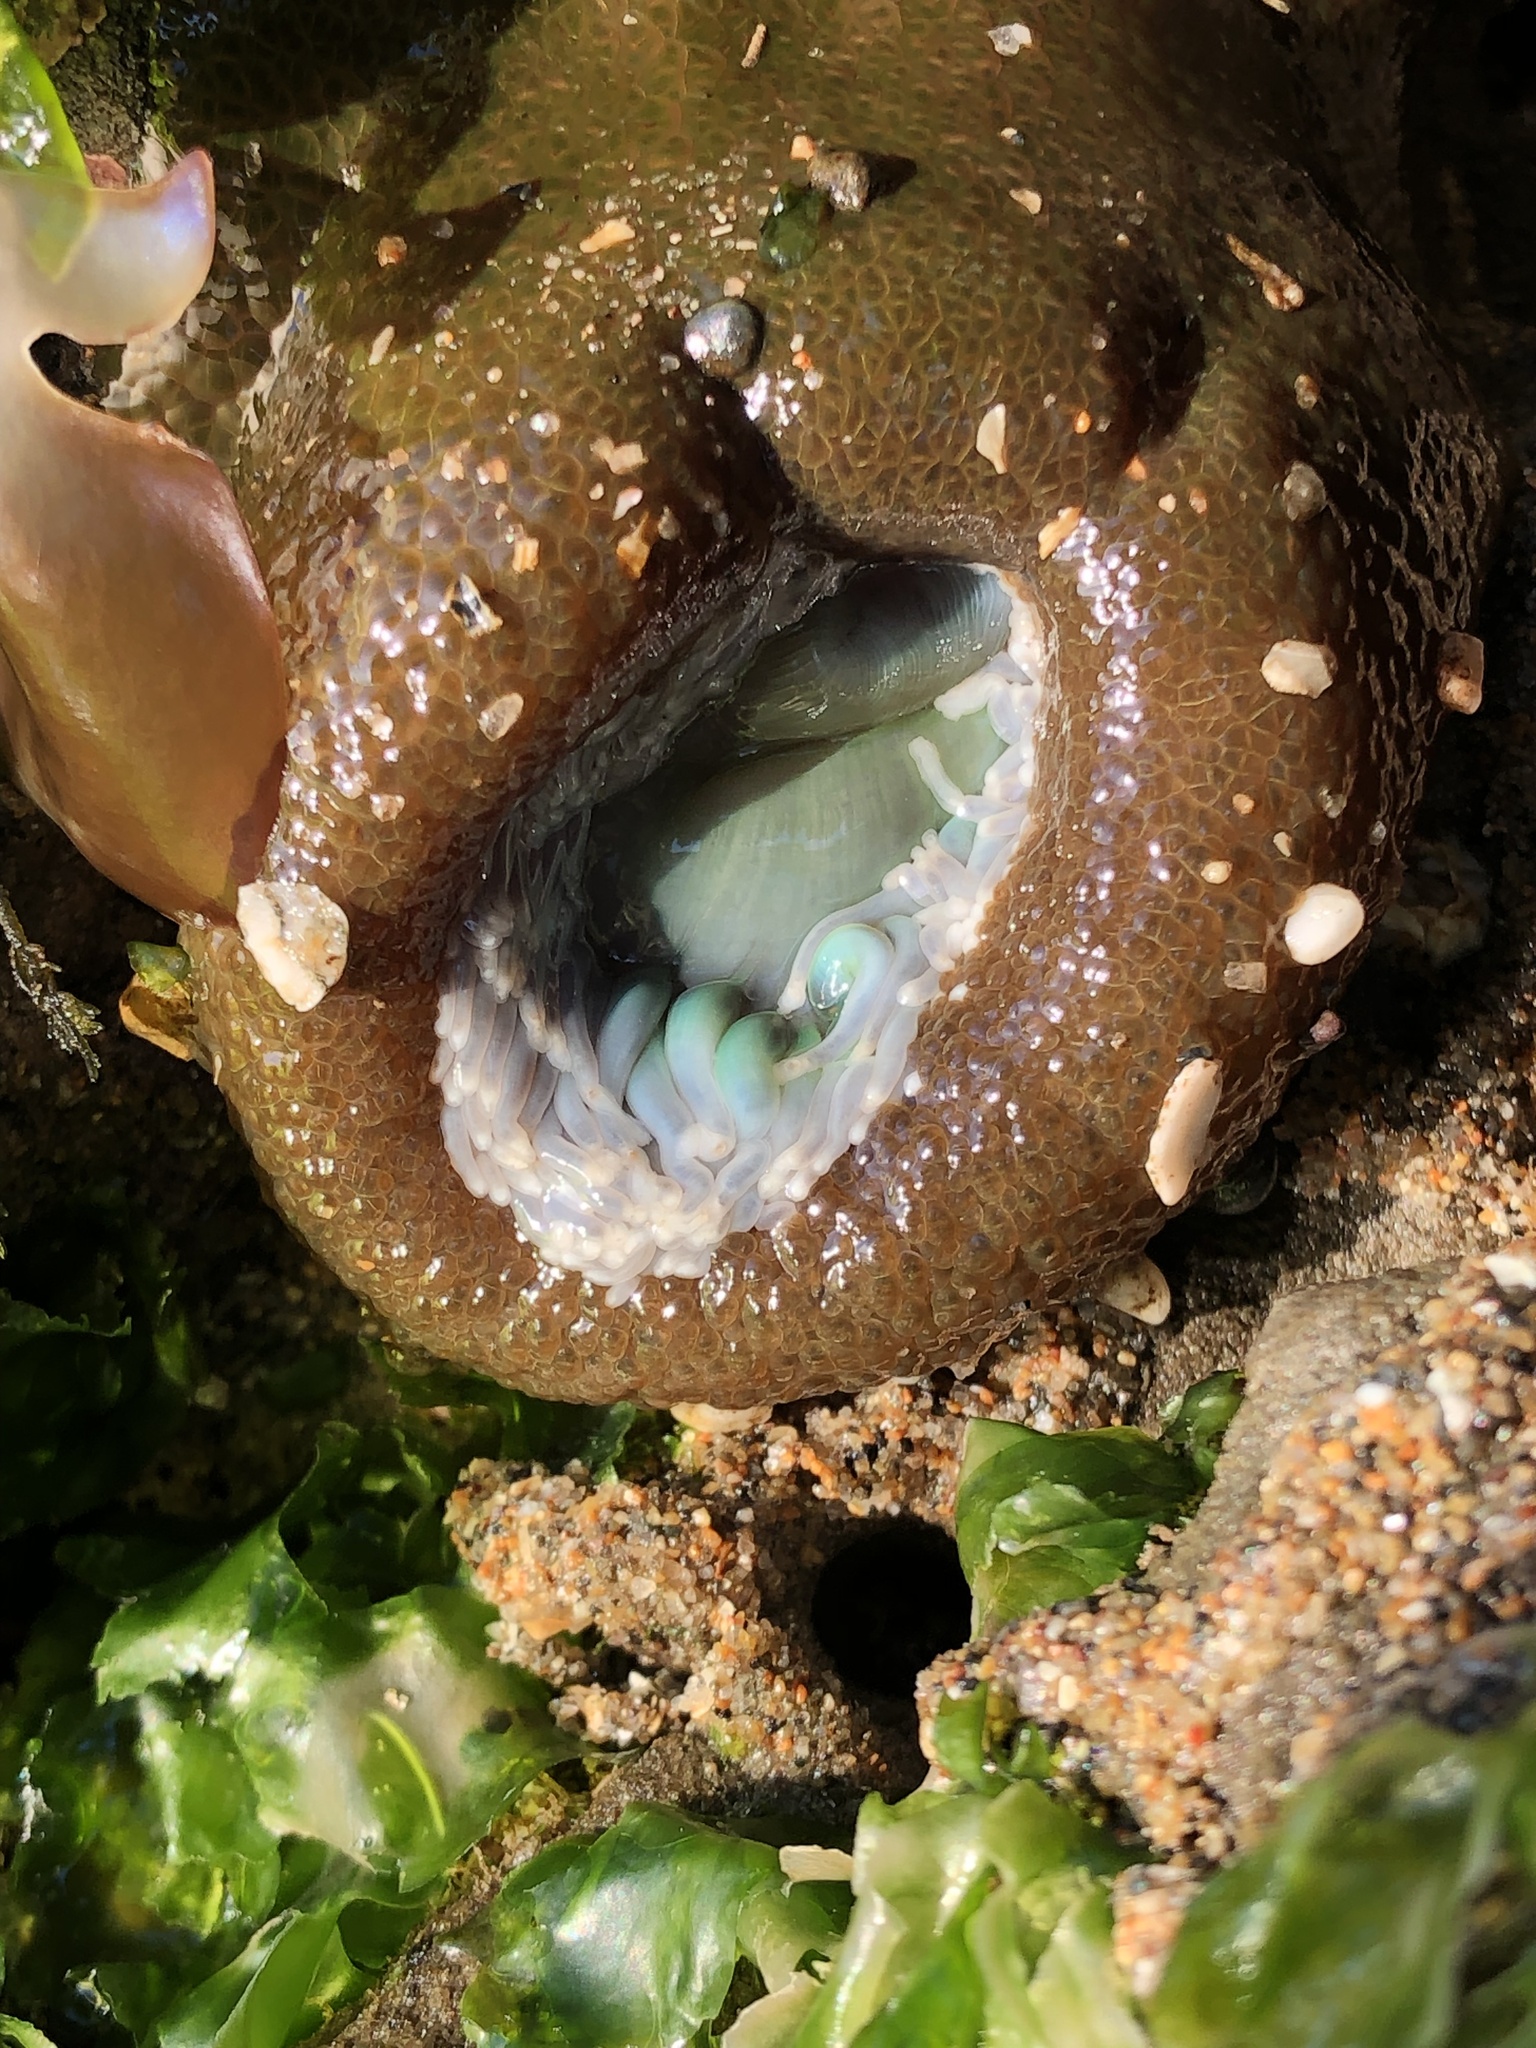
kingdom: Animalia
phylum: Cnidaria
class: Anthozoa
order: Actiniaria
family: Actiniidae
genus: Anthopleura
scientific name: Anthopleura xanthogrammica
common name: Giant green anemone
